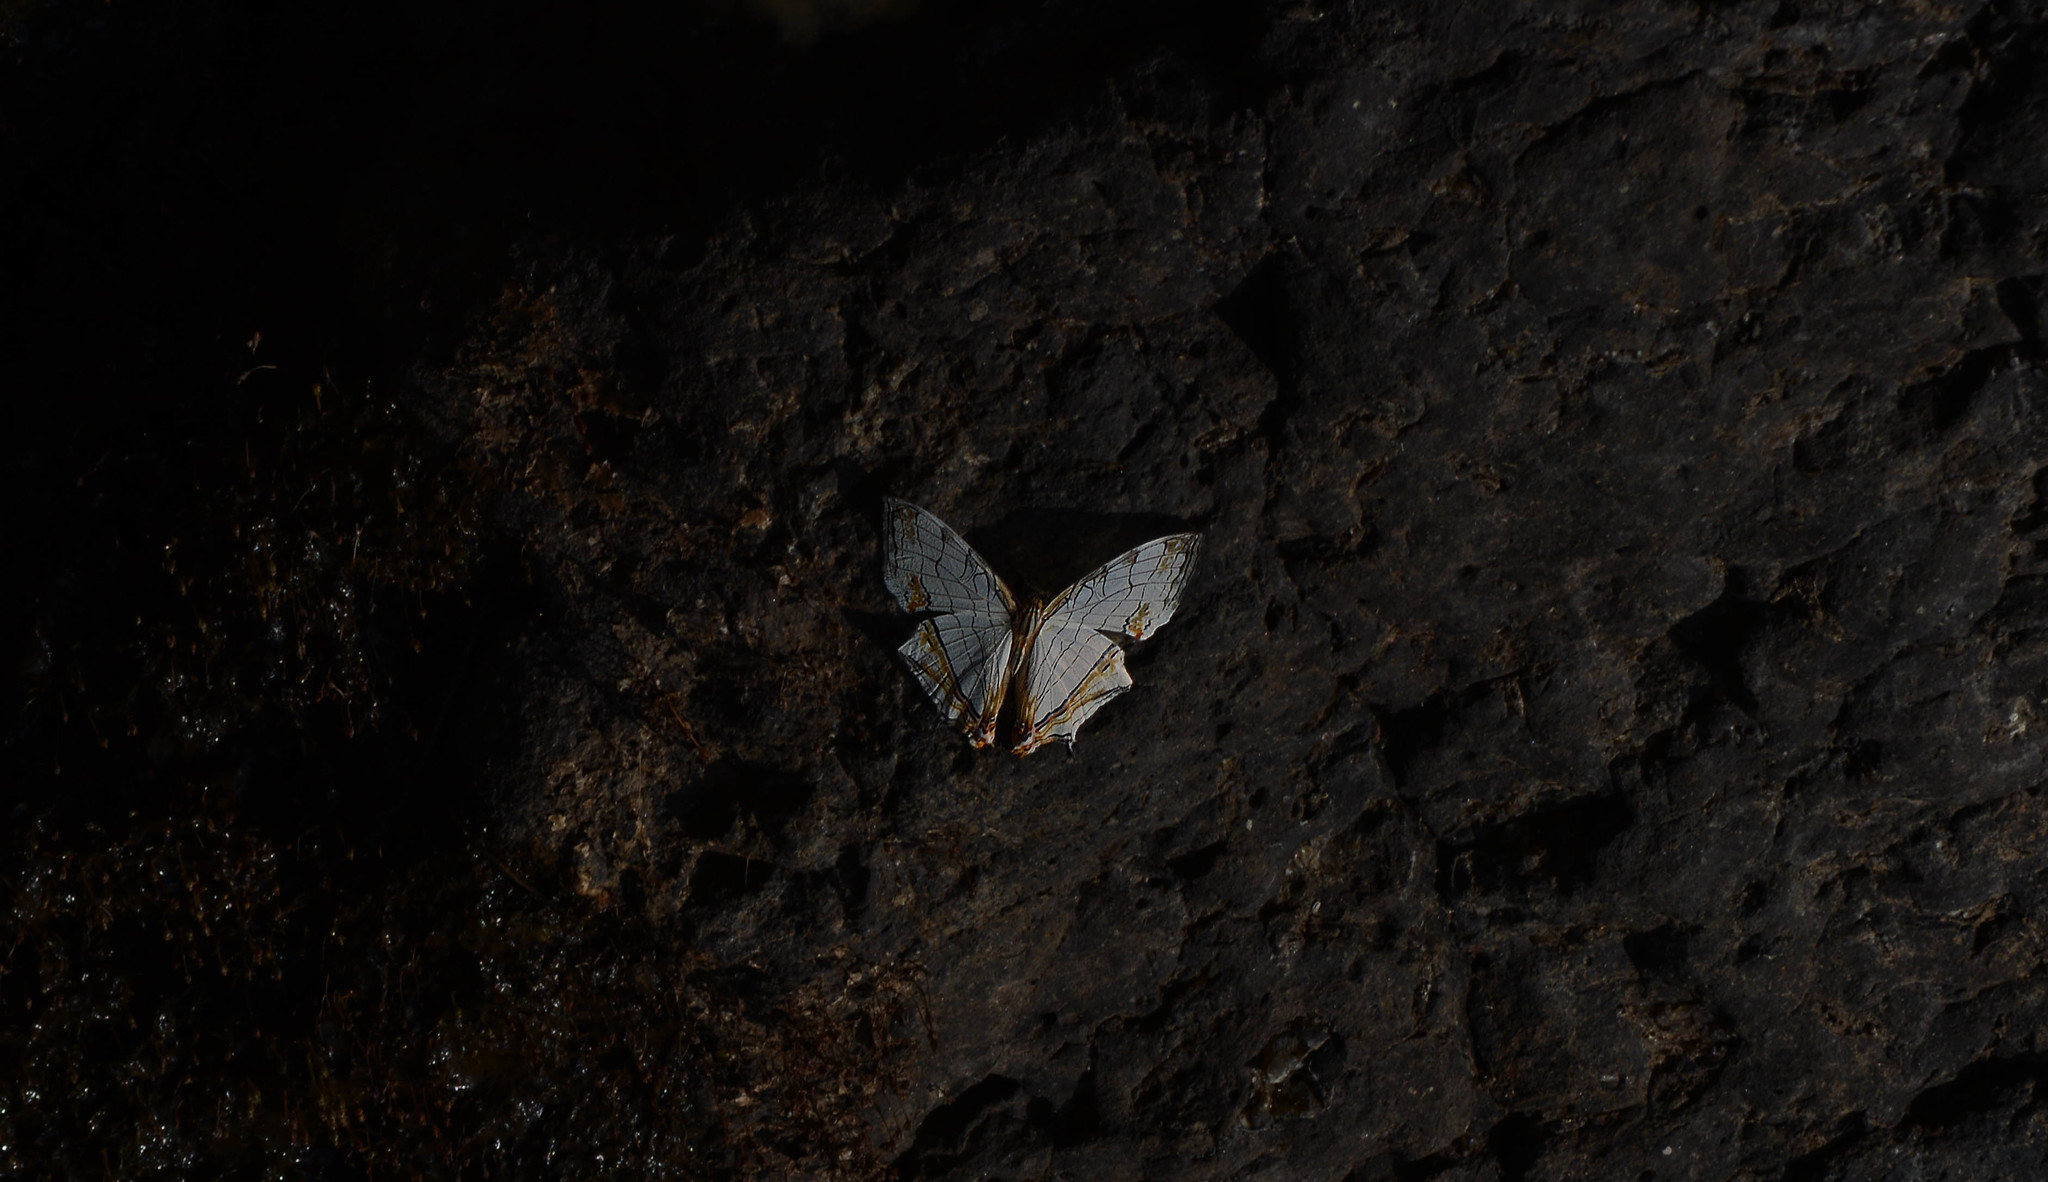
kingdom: Animalia
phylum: Arthropoda
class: Insecta
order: Lepidoptera
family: Nymphalidae
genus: Cyrestis
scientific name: Cyrestis thyodamas
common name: Common mapwing
